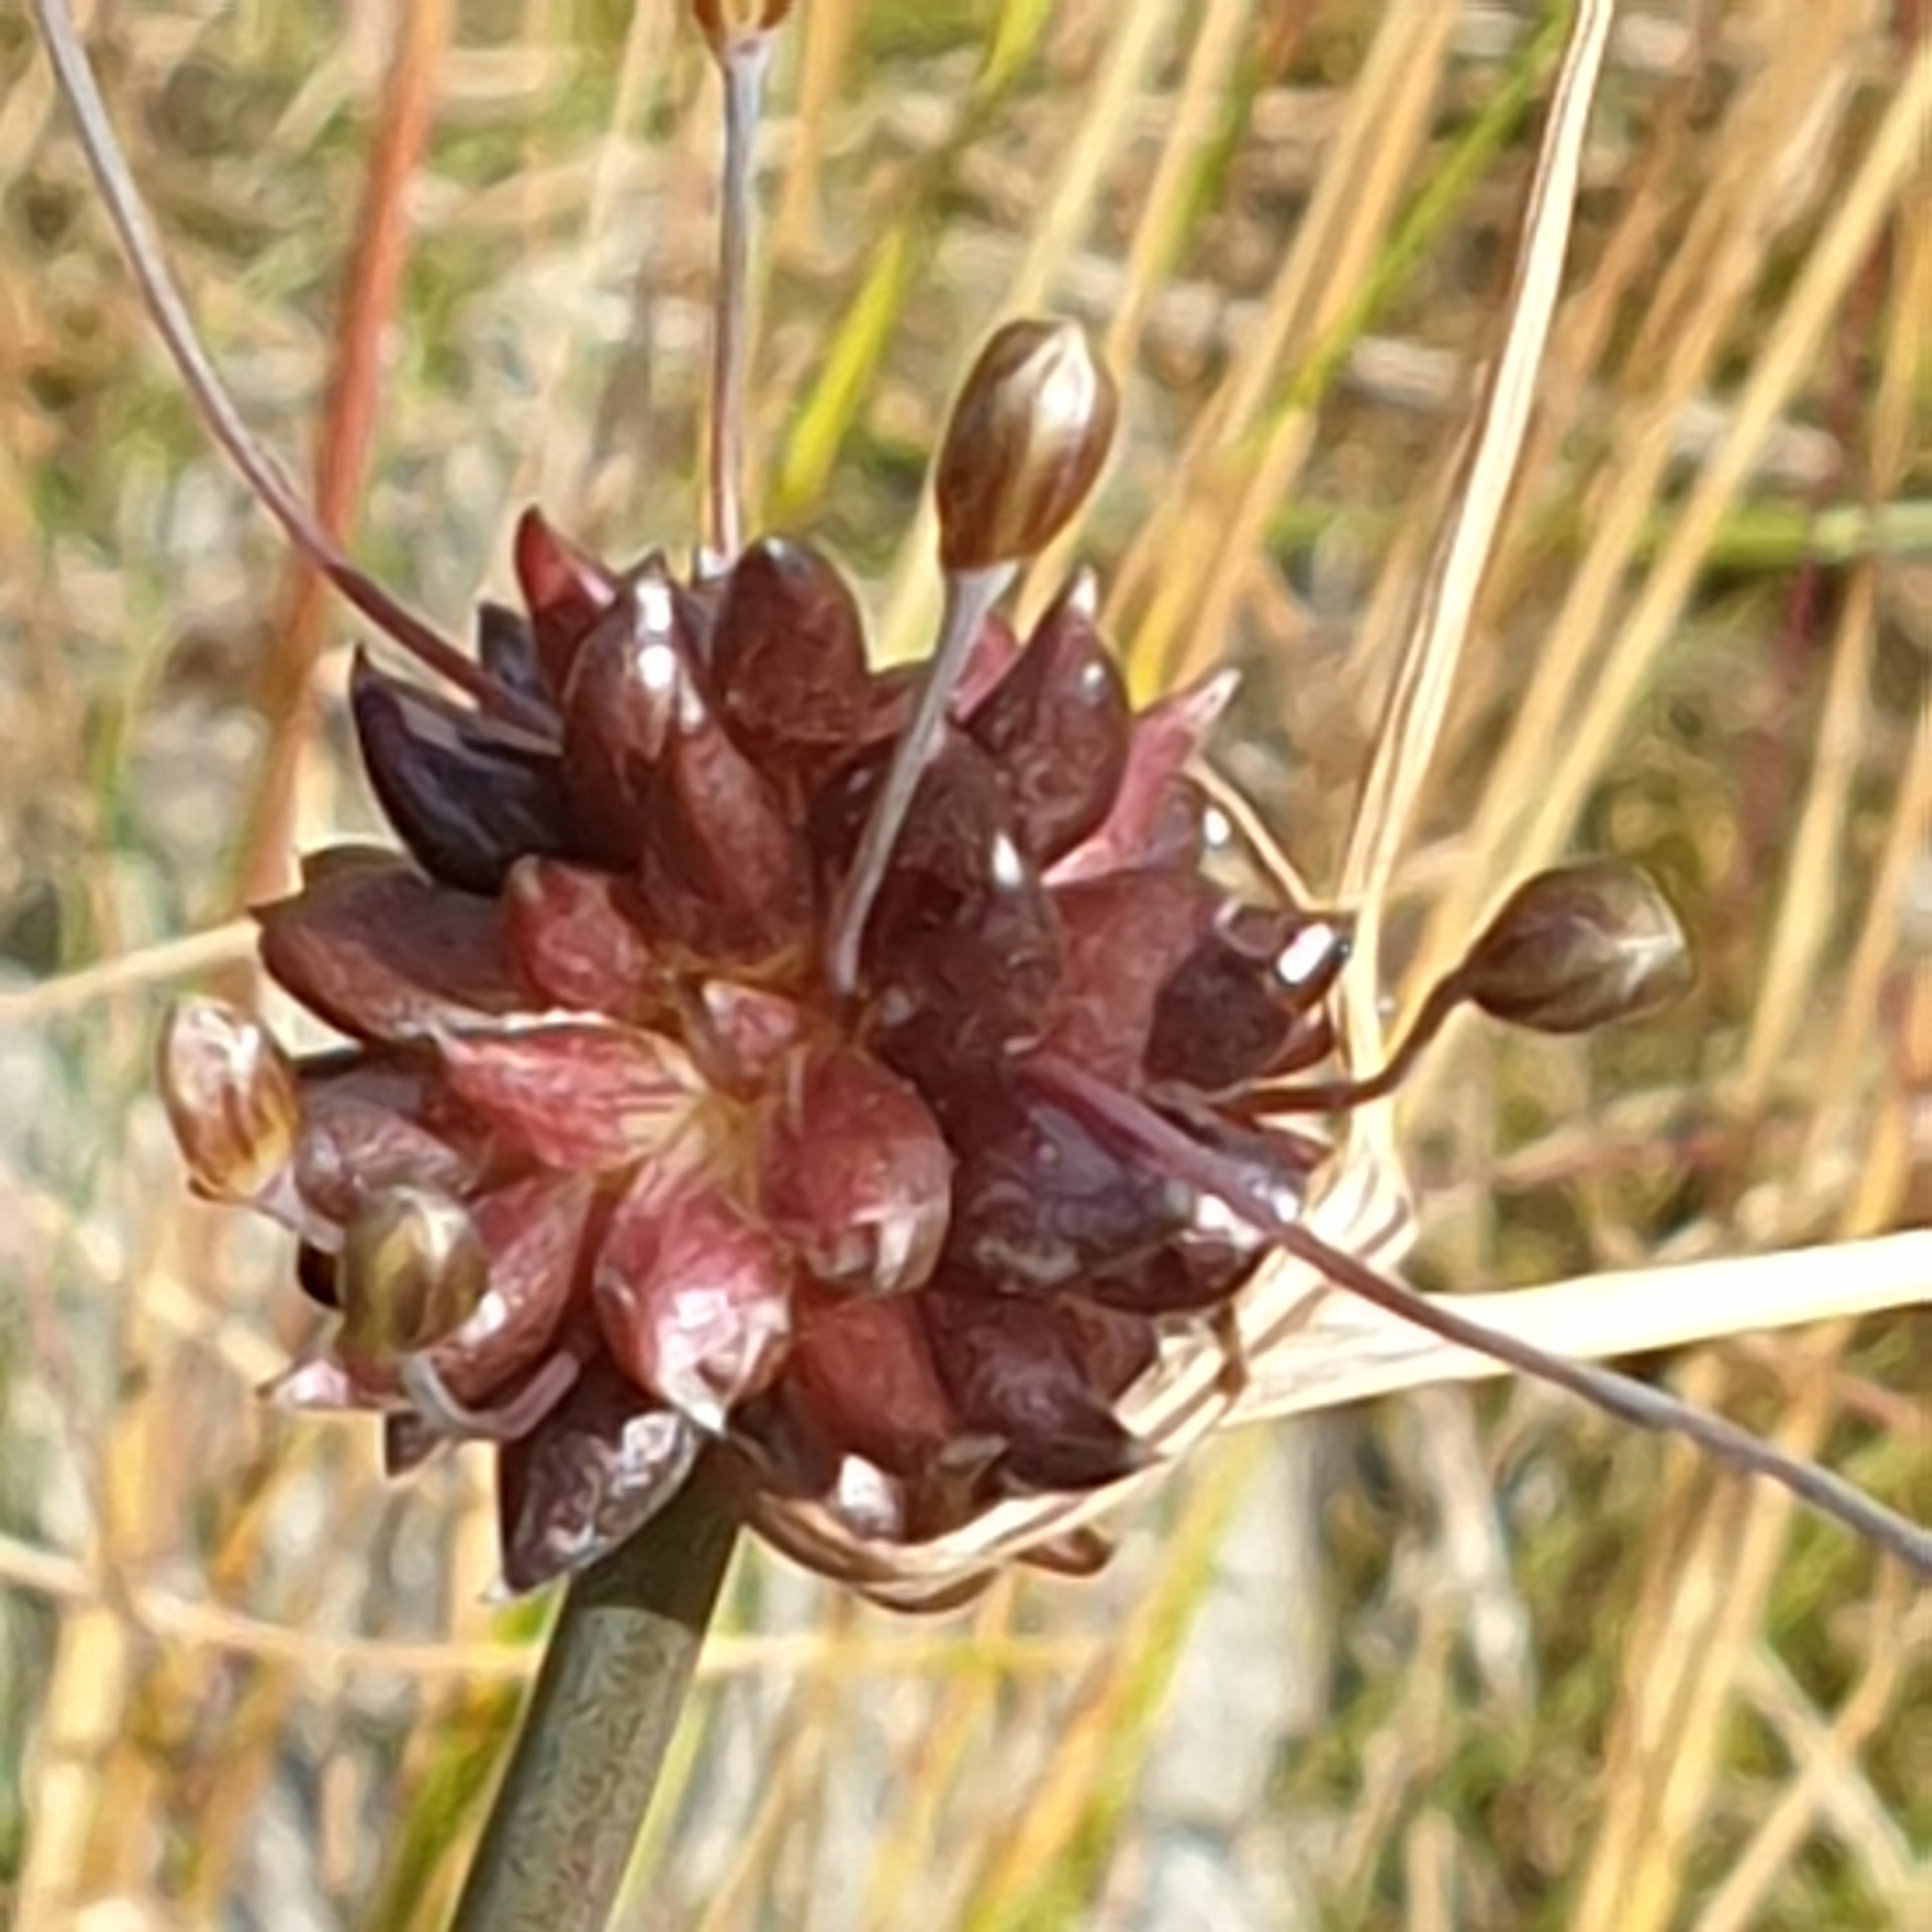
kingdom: Plantae
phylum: Tracheophyta
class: Liliopsida
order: Asparagales
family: Amaryllidaceae
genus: Allium
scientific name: Allium oleraceum
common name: Field garlic
